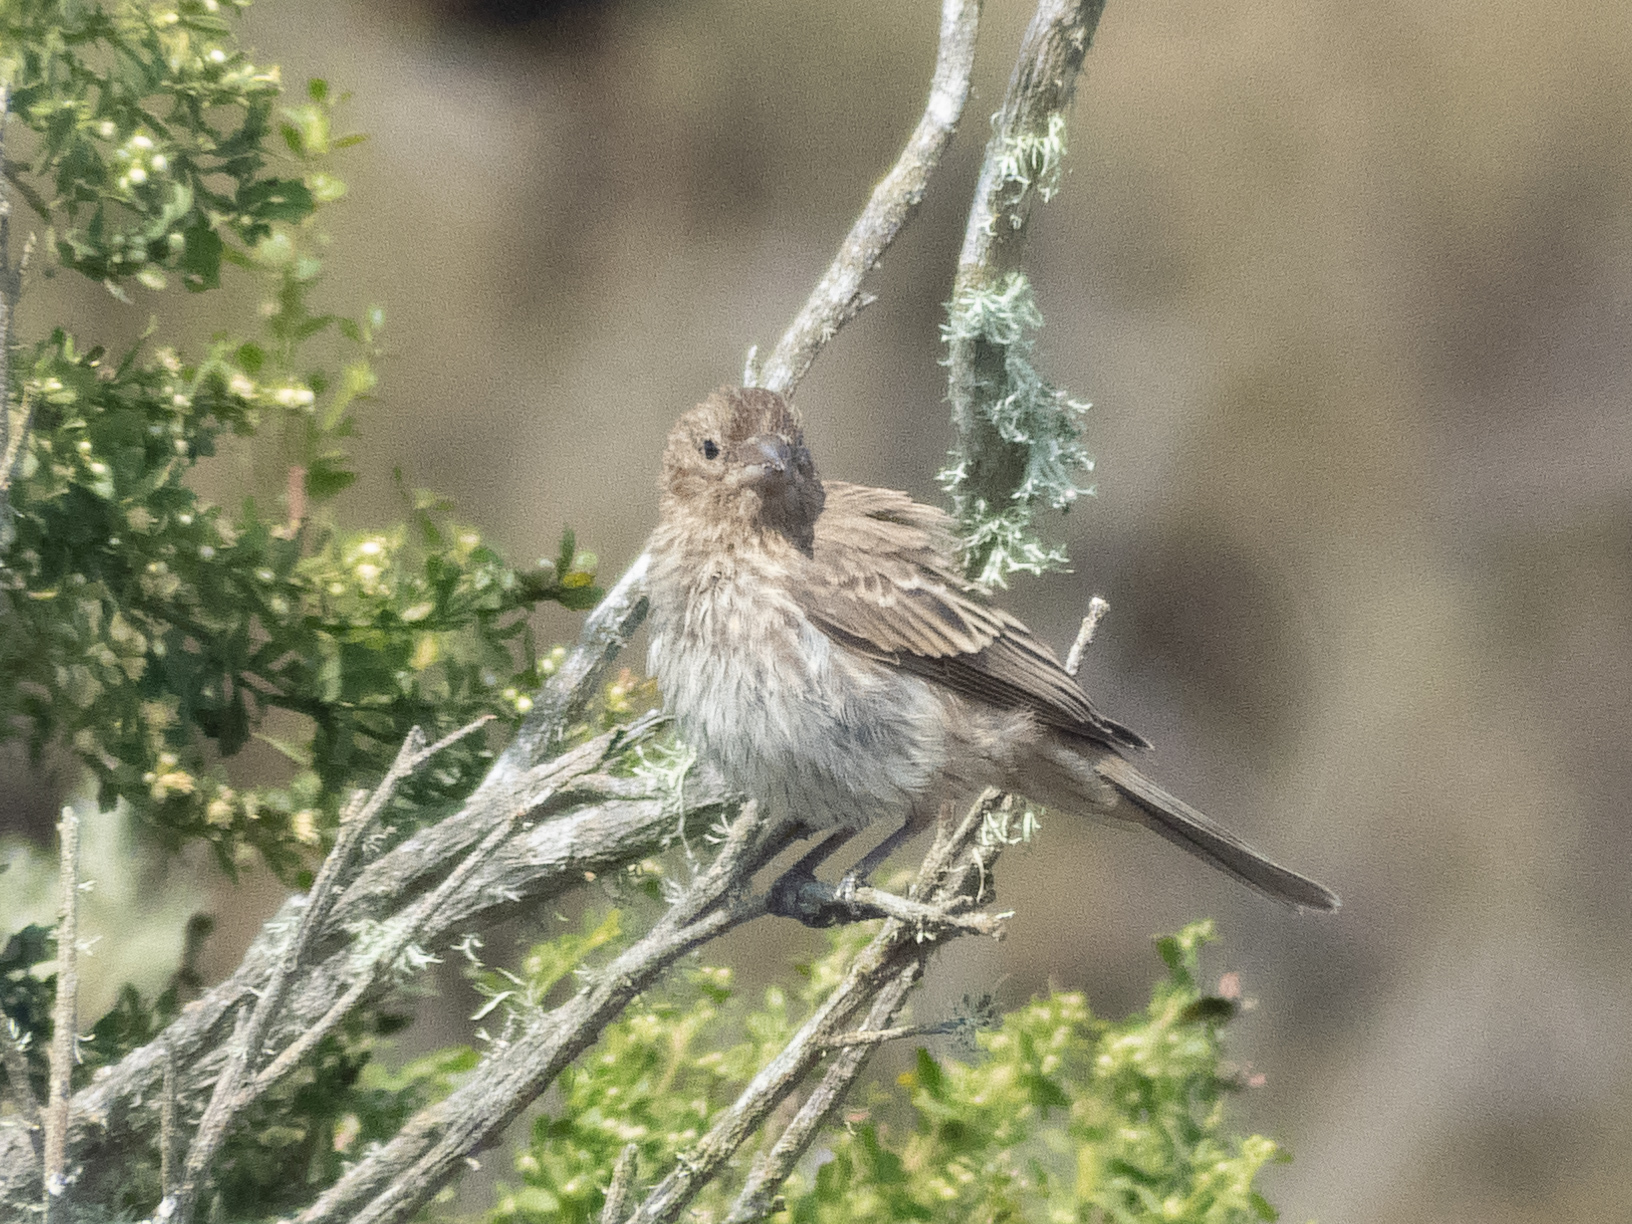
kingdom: Animalia
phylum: Chordata
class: Aves
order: Passeriformes
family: Fringillidae
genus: Haemorhous
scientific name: Haemorhous mexicanus
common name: House finch
